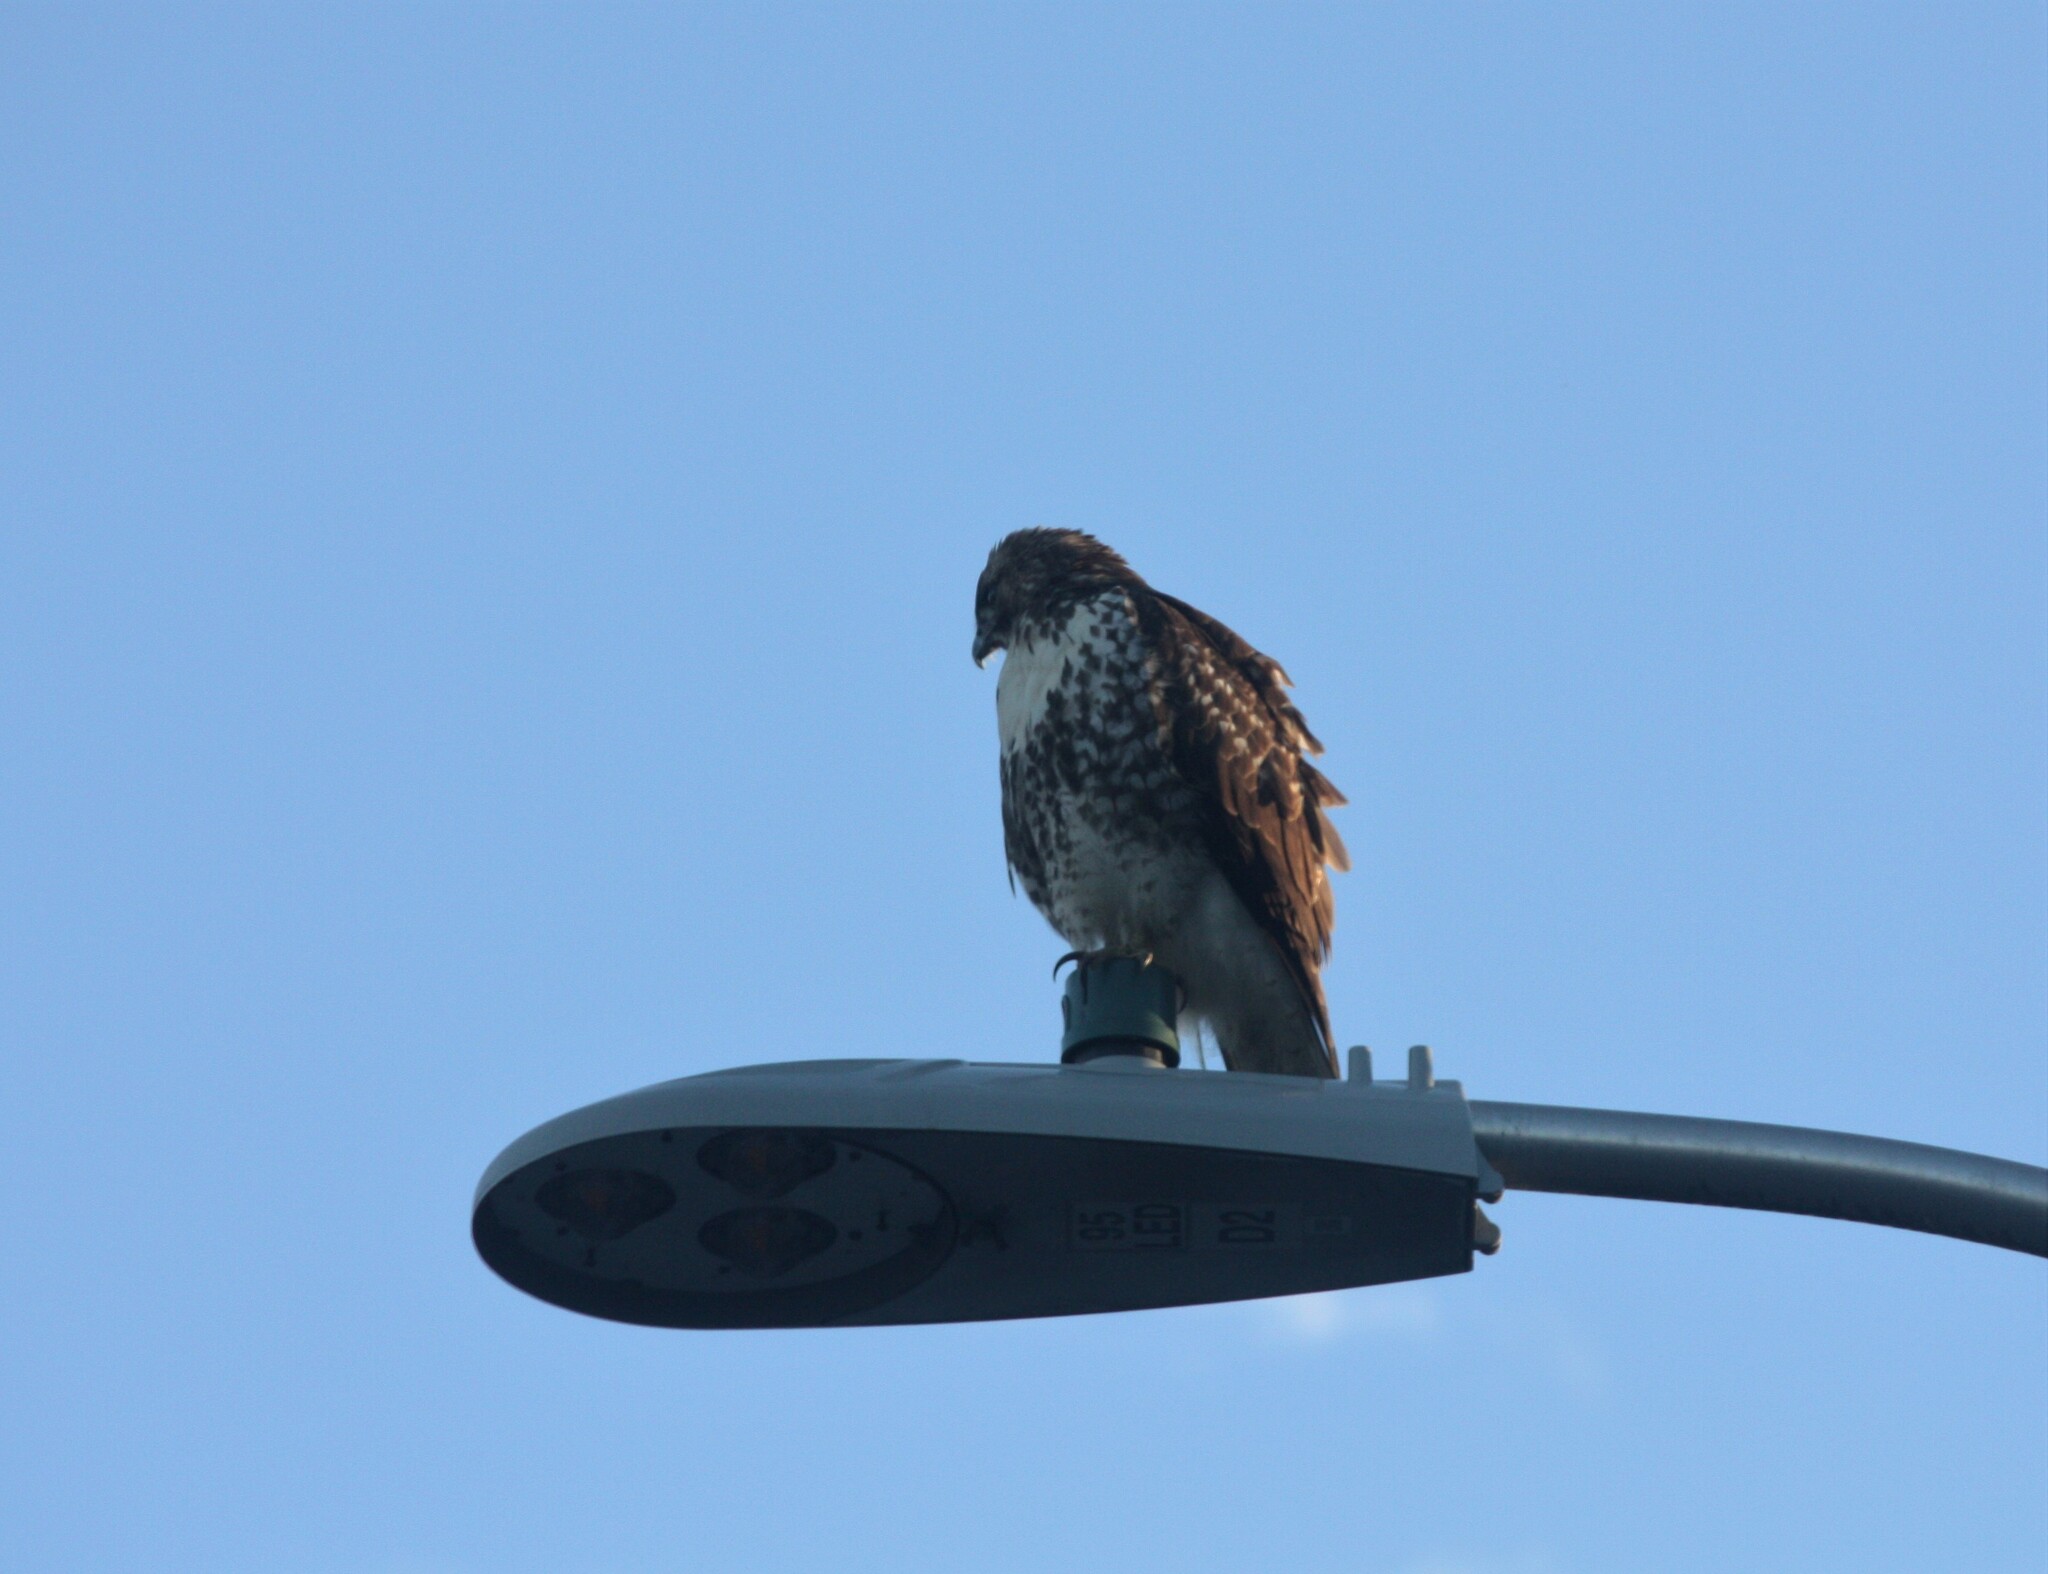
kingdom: Animalia
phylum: Chordata
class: Aves
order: Accipitriformes
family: Accipitridae
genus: Buteo
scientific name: Buteo jamaicensis
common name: Red-tailed hawk
